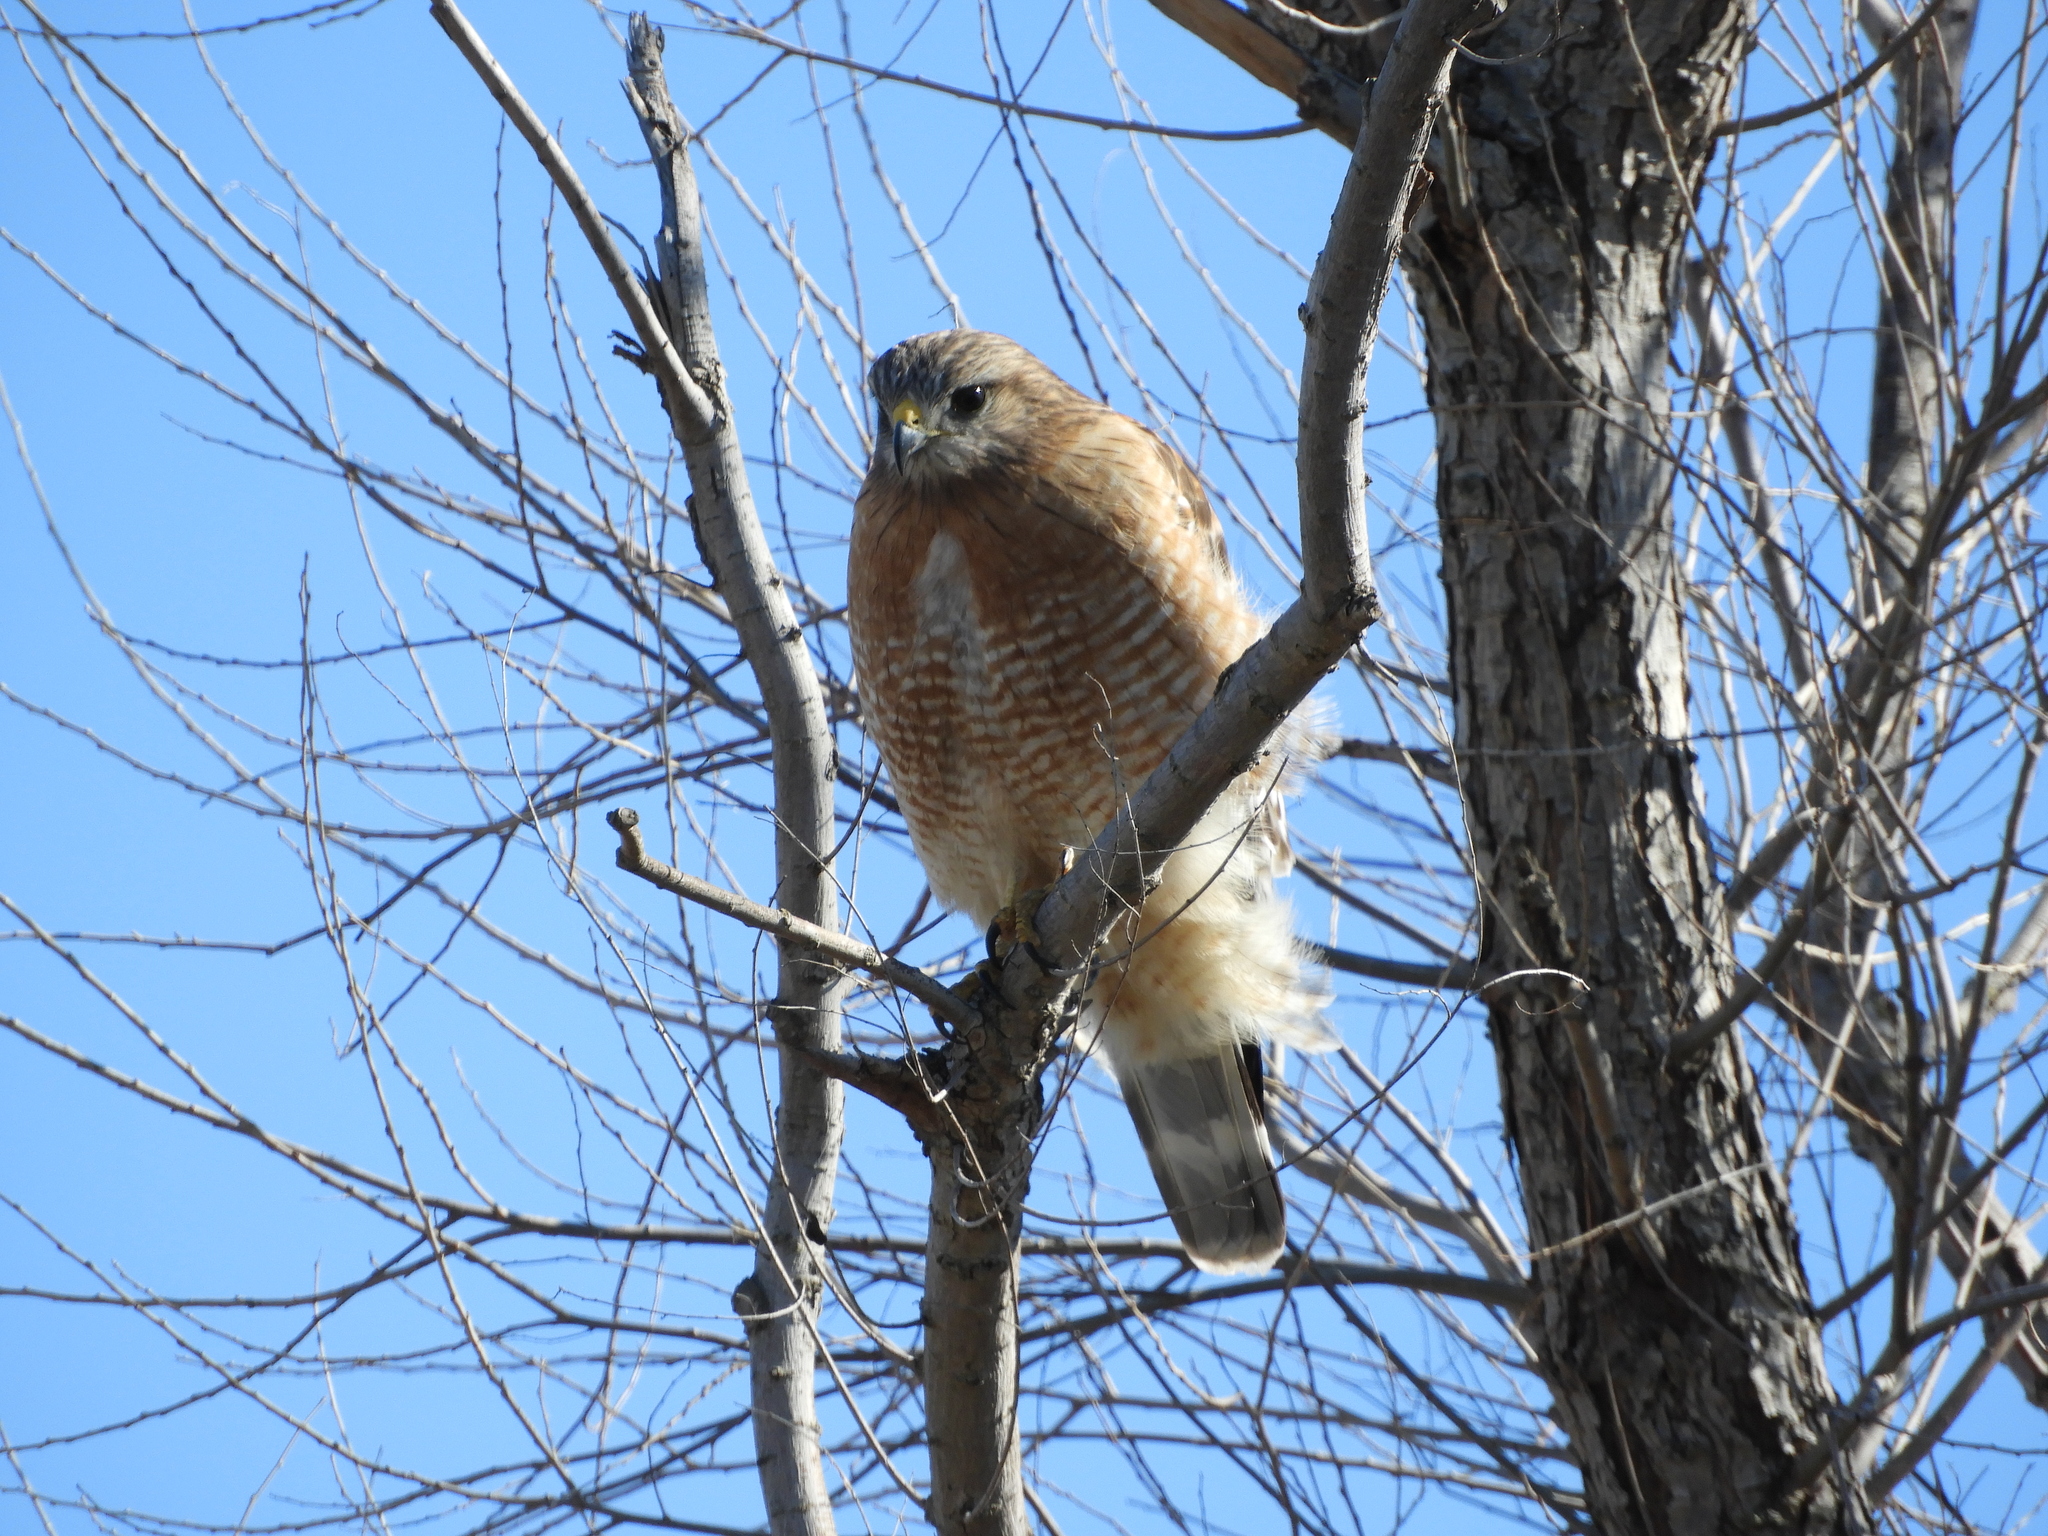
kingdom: Animalia
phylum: Chordata
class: Aves
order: Accipitriformes
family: Accipitridae
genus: Buteo
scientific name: Buteo lineatus
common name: Red-shouldered hawk
